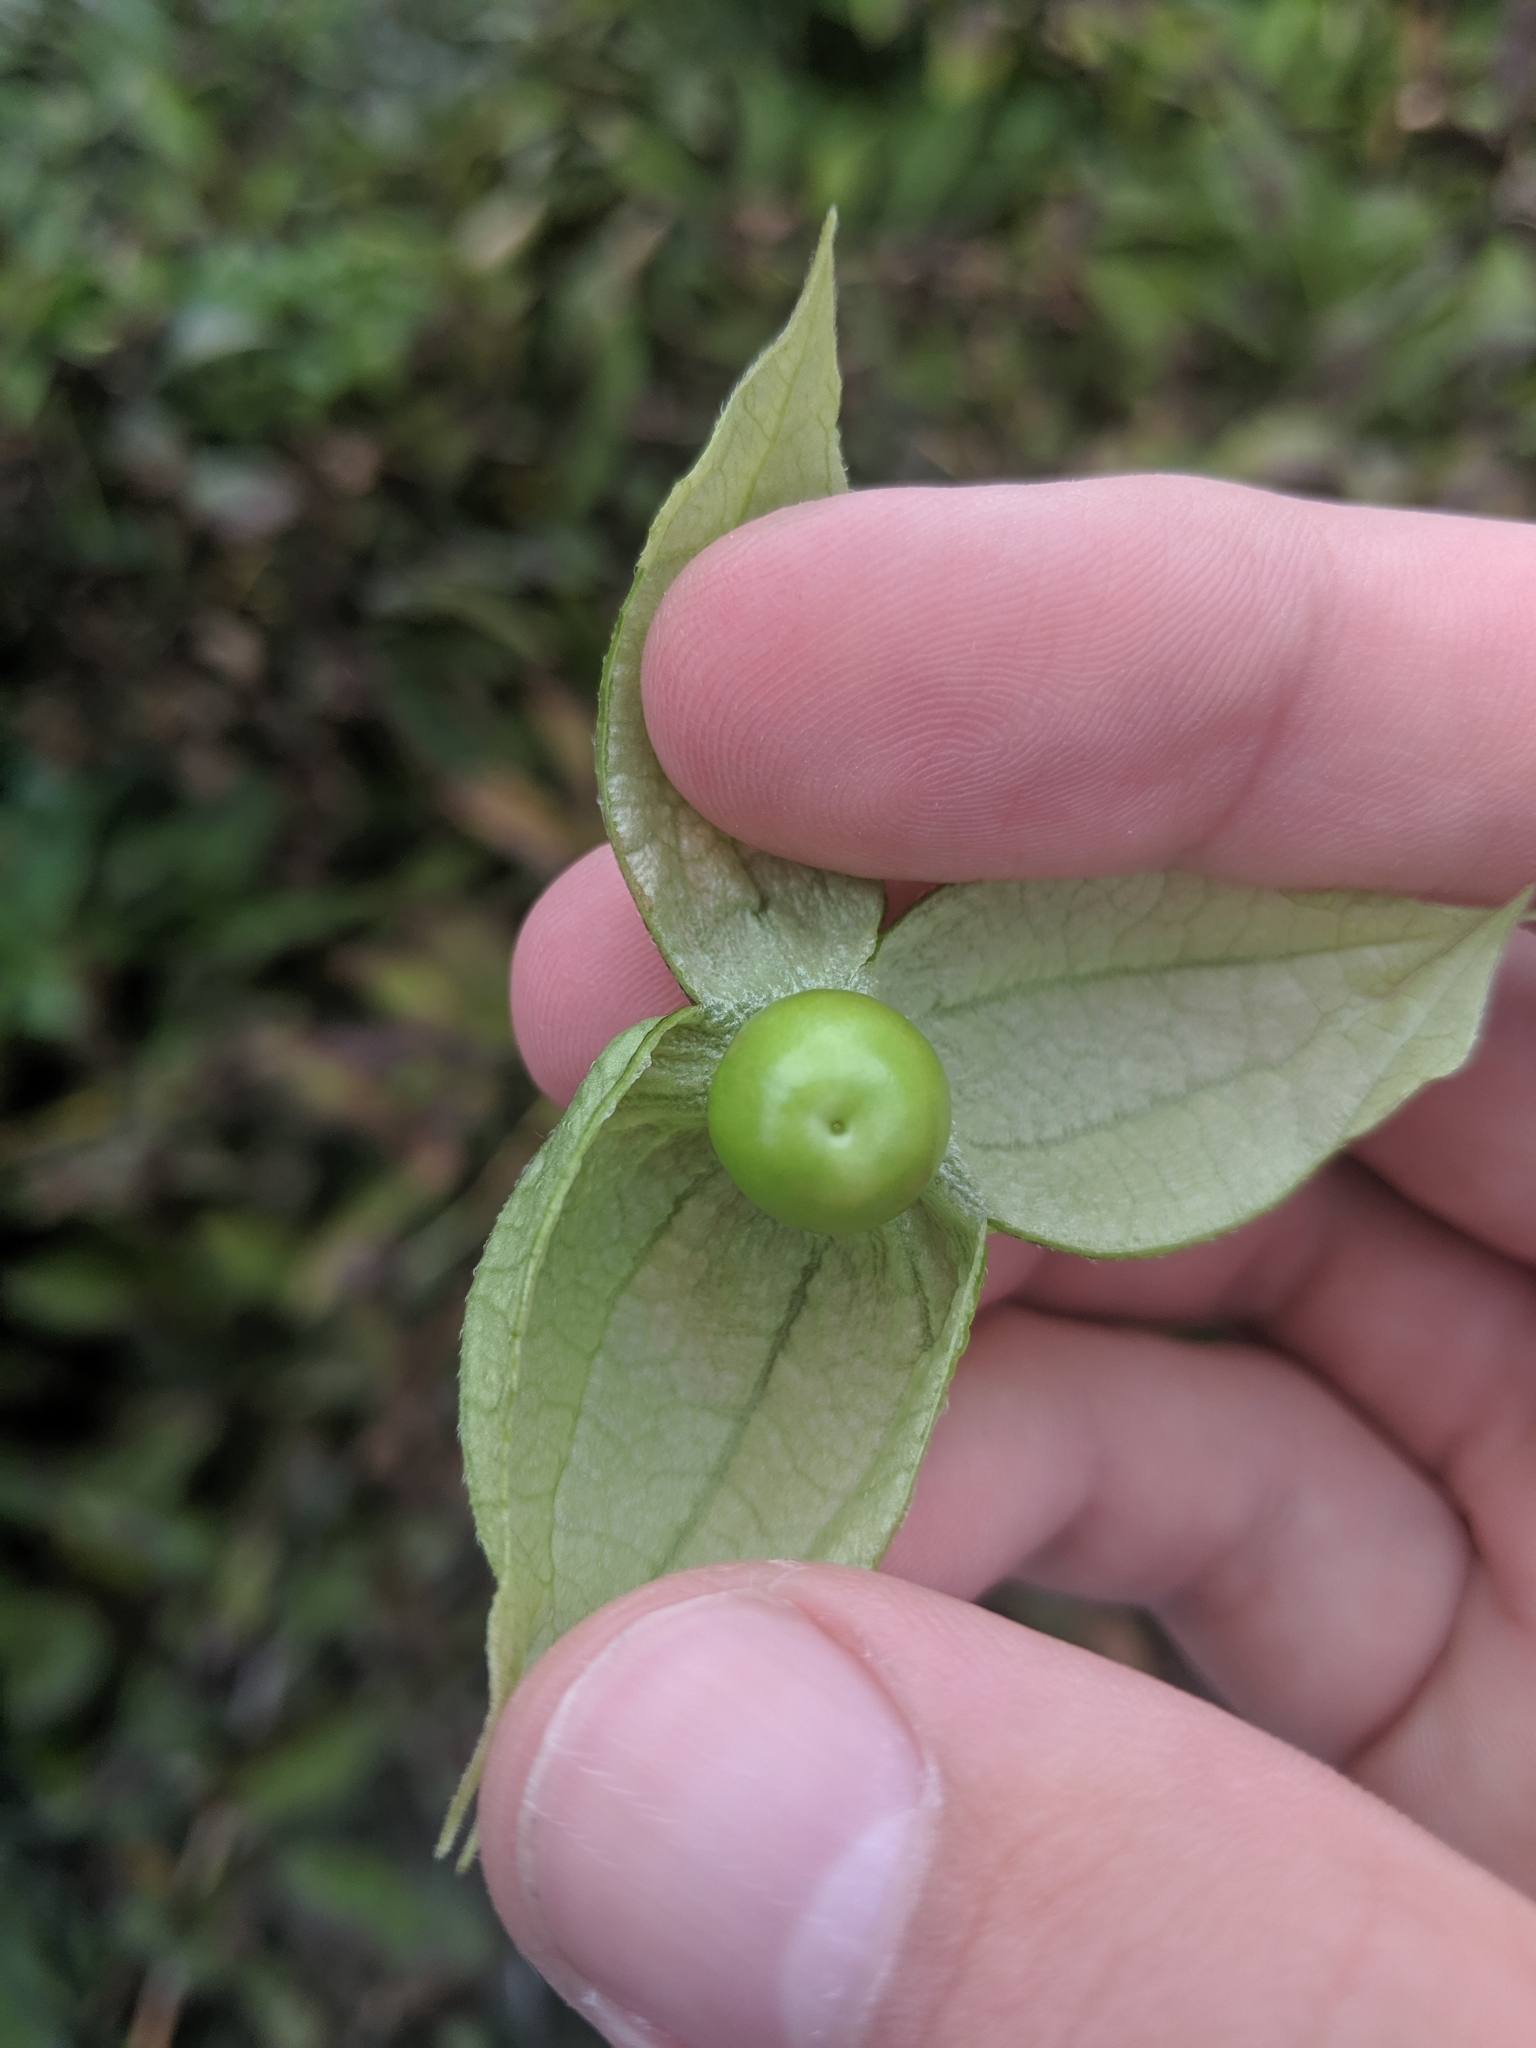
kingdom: Plantae
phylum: Tracheophyta
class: Magnoliopsida
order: Solanales
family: Solanaceae
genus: Physalis
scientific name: Physalis philadelphica
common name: Husk-tomato
